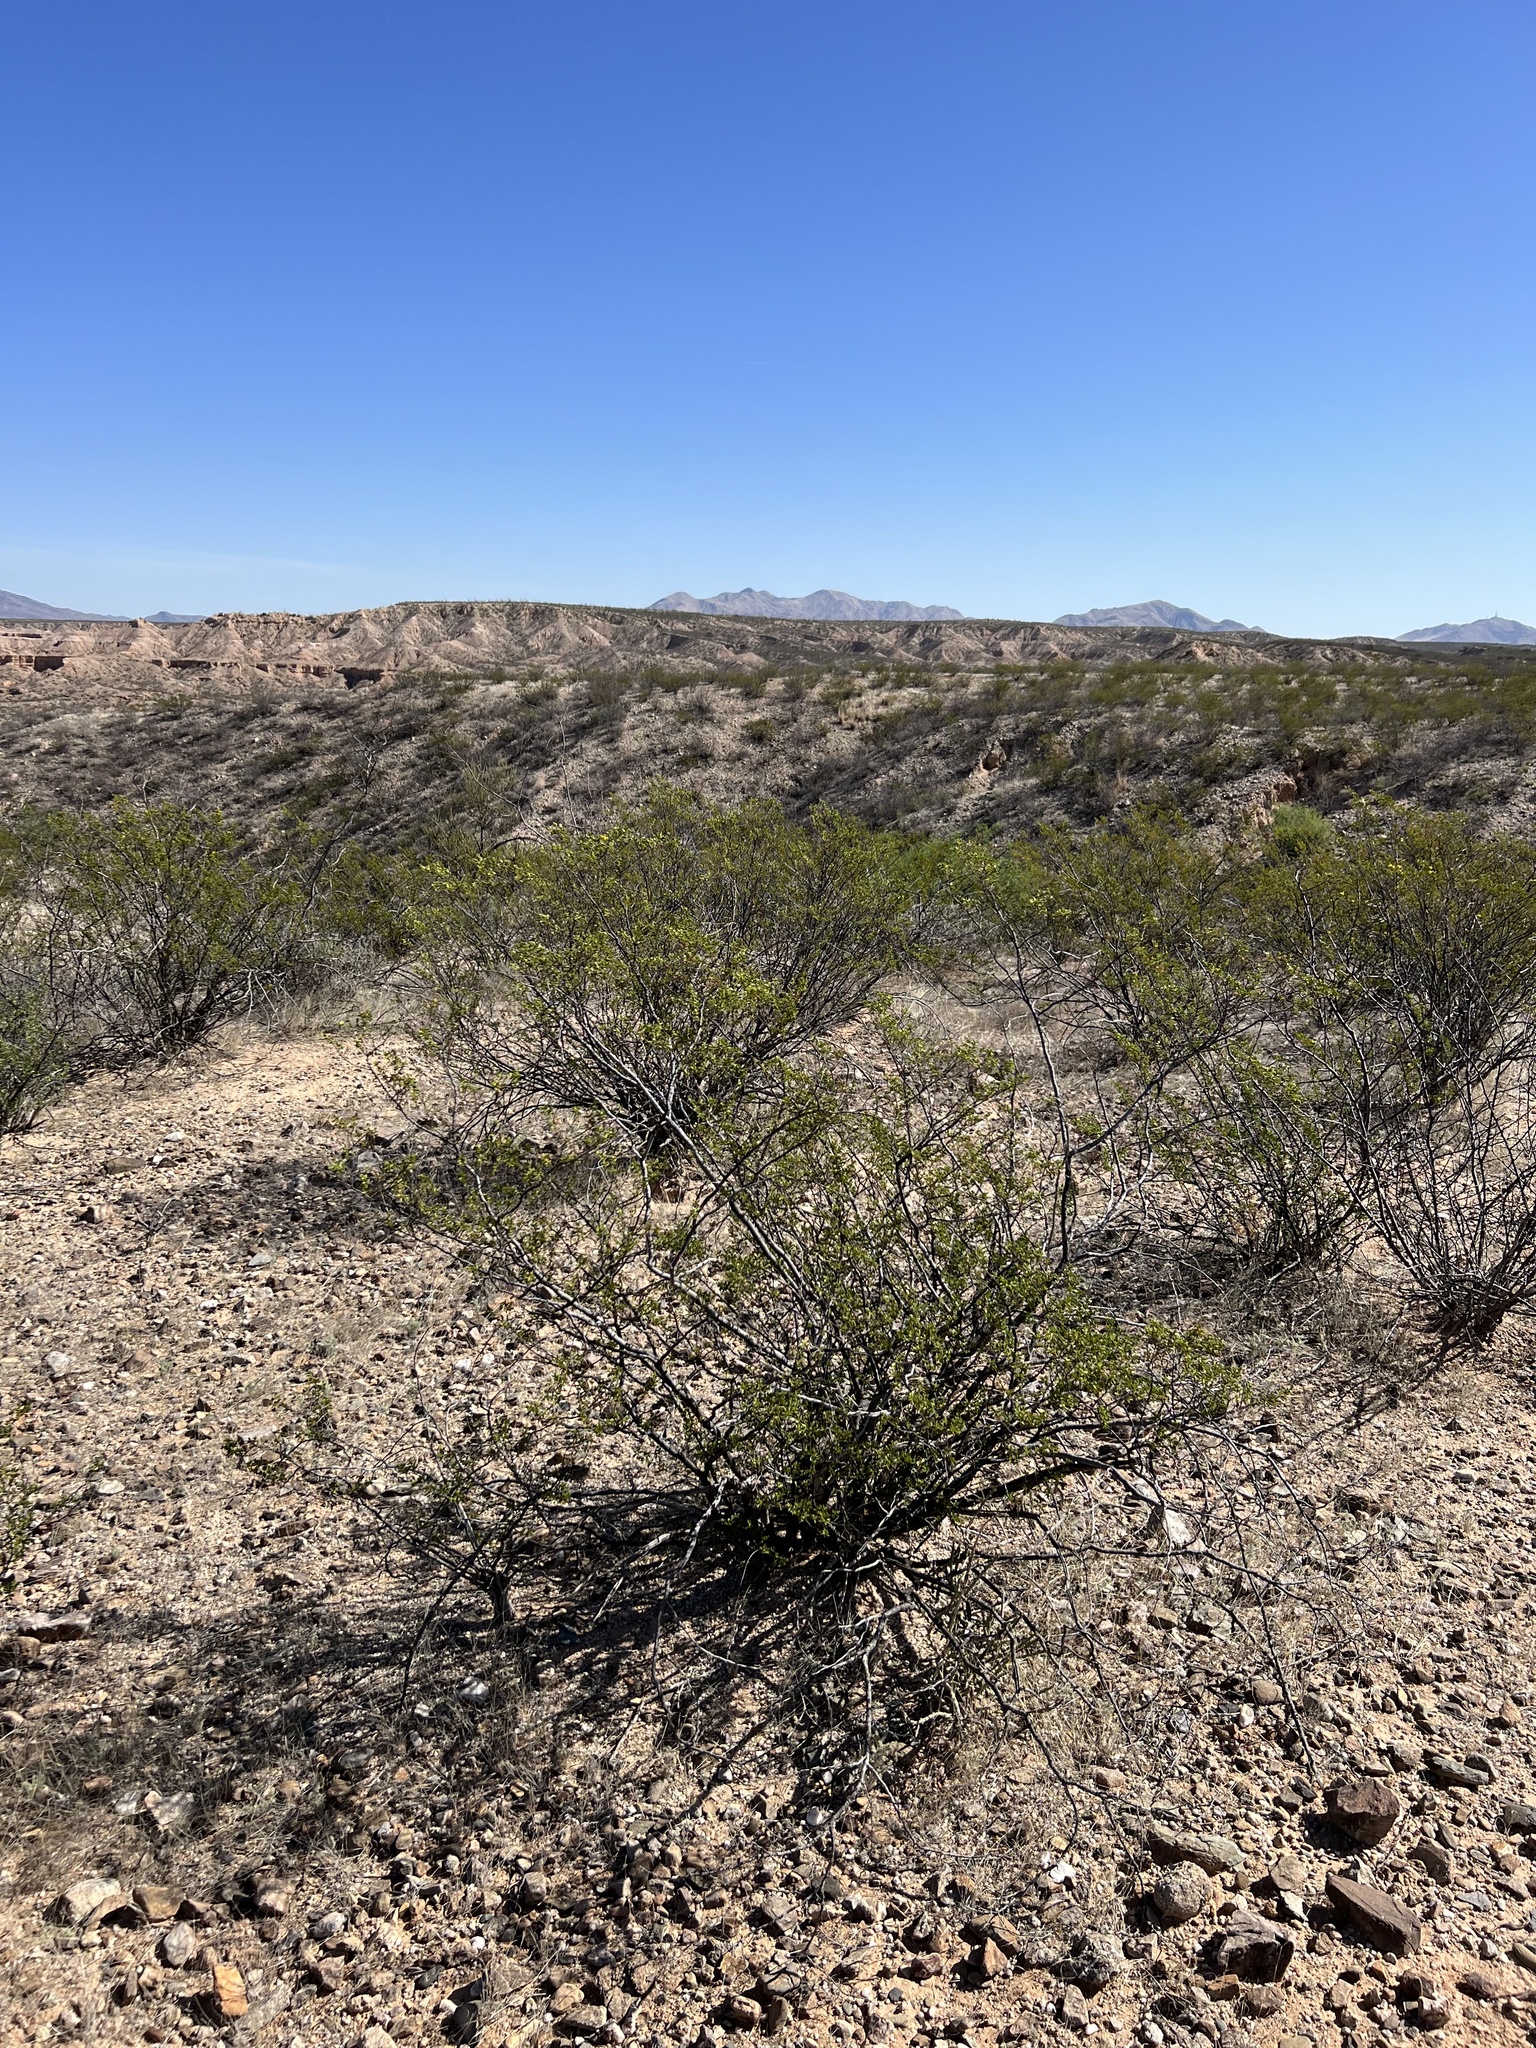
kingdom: Plantae
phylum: Tracheophyta
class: Magnoliopsida
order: Zygophyllales
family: Zygophyllaceae
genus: Larrea
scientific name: Larrea tridentata
